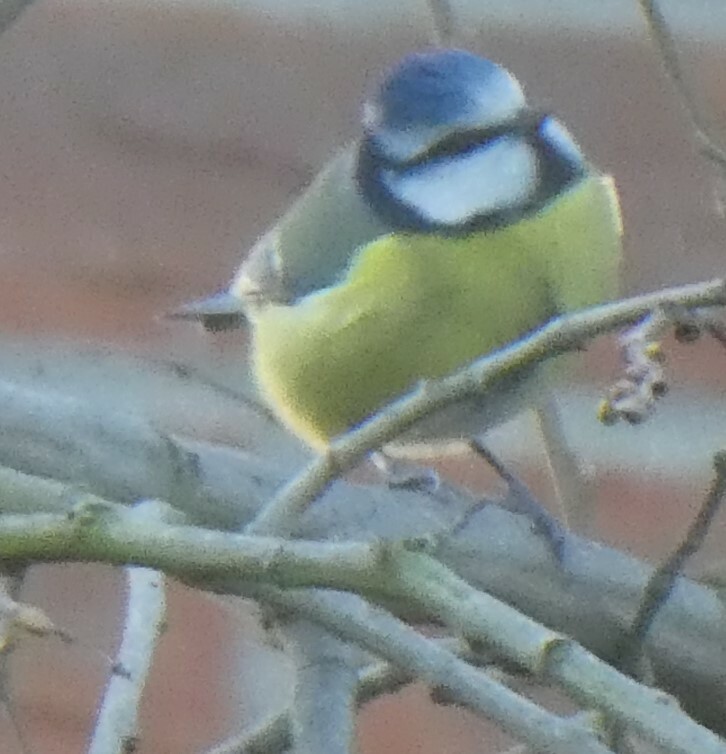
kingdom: Animalia
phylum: Chordata
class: Aves
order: Passeriformes
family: Paridae
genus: Cyanistes
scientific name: Cyanistes caeruleus
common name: Eurasian blue tit
